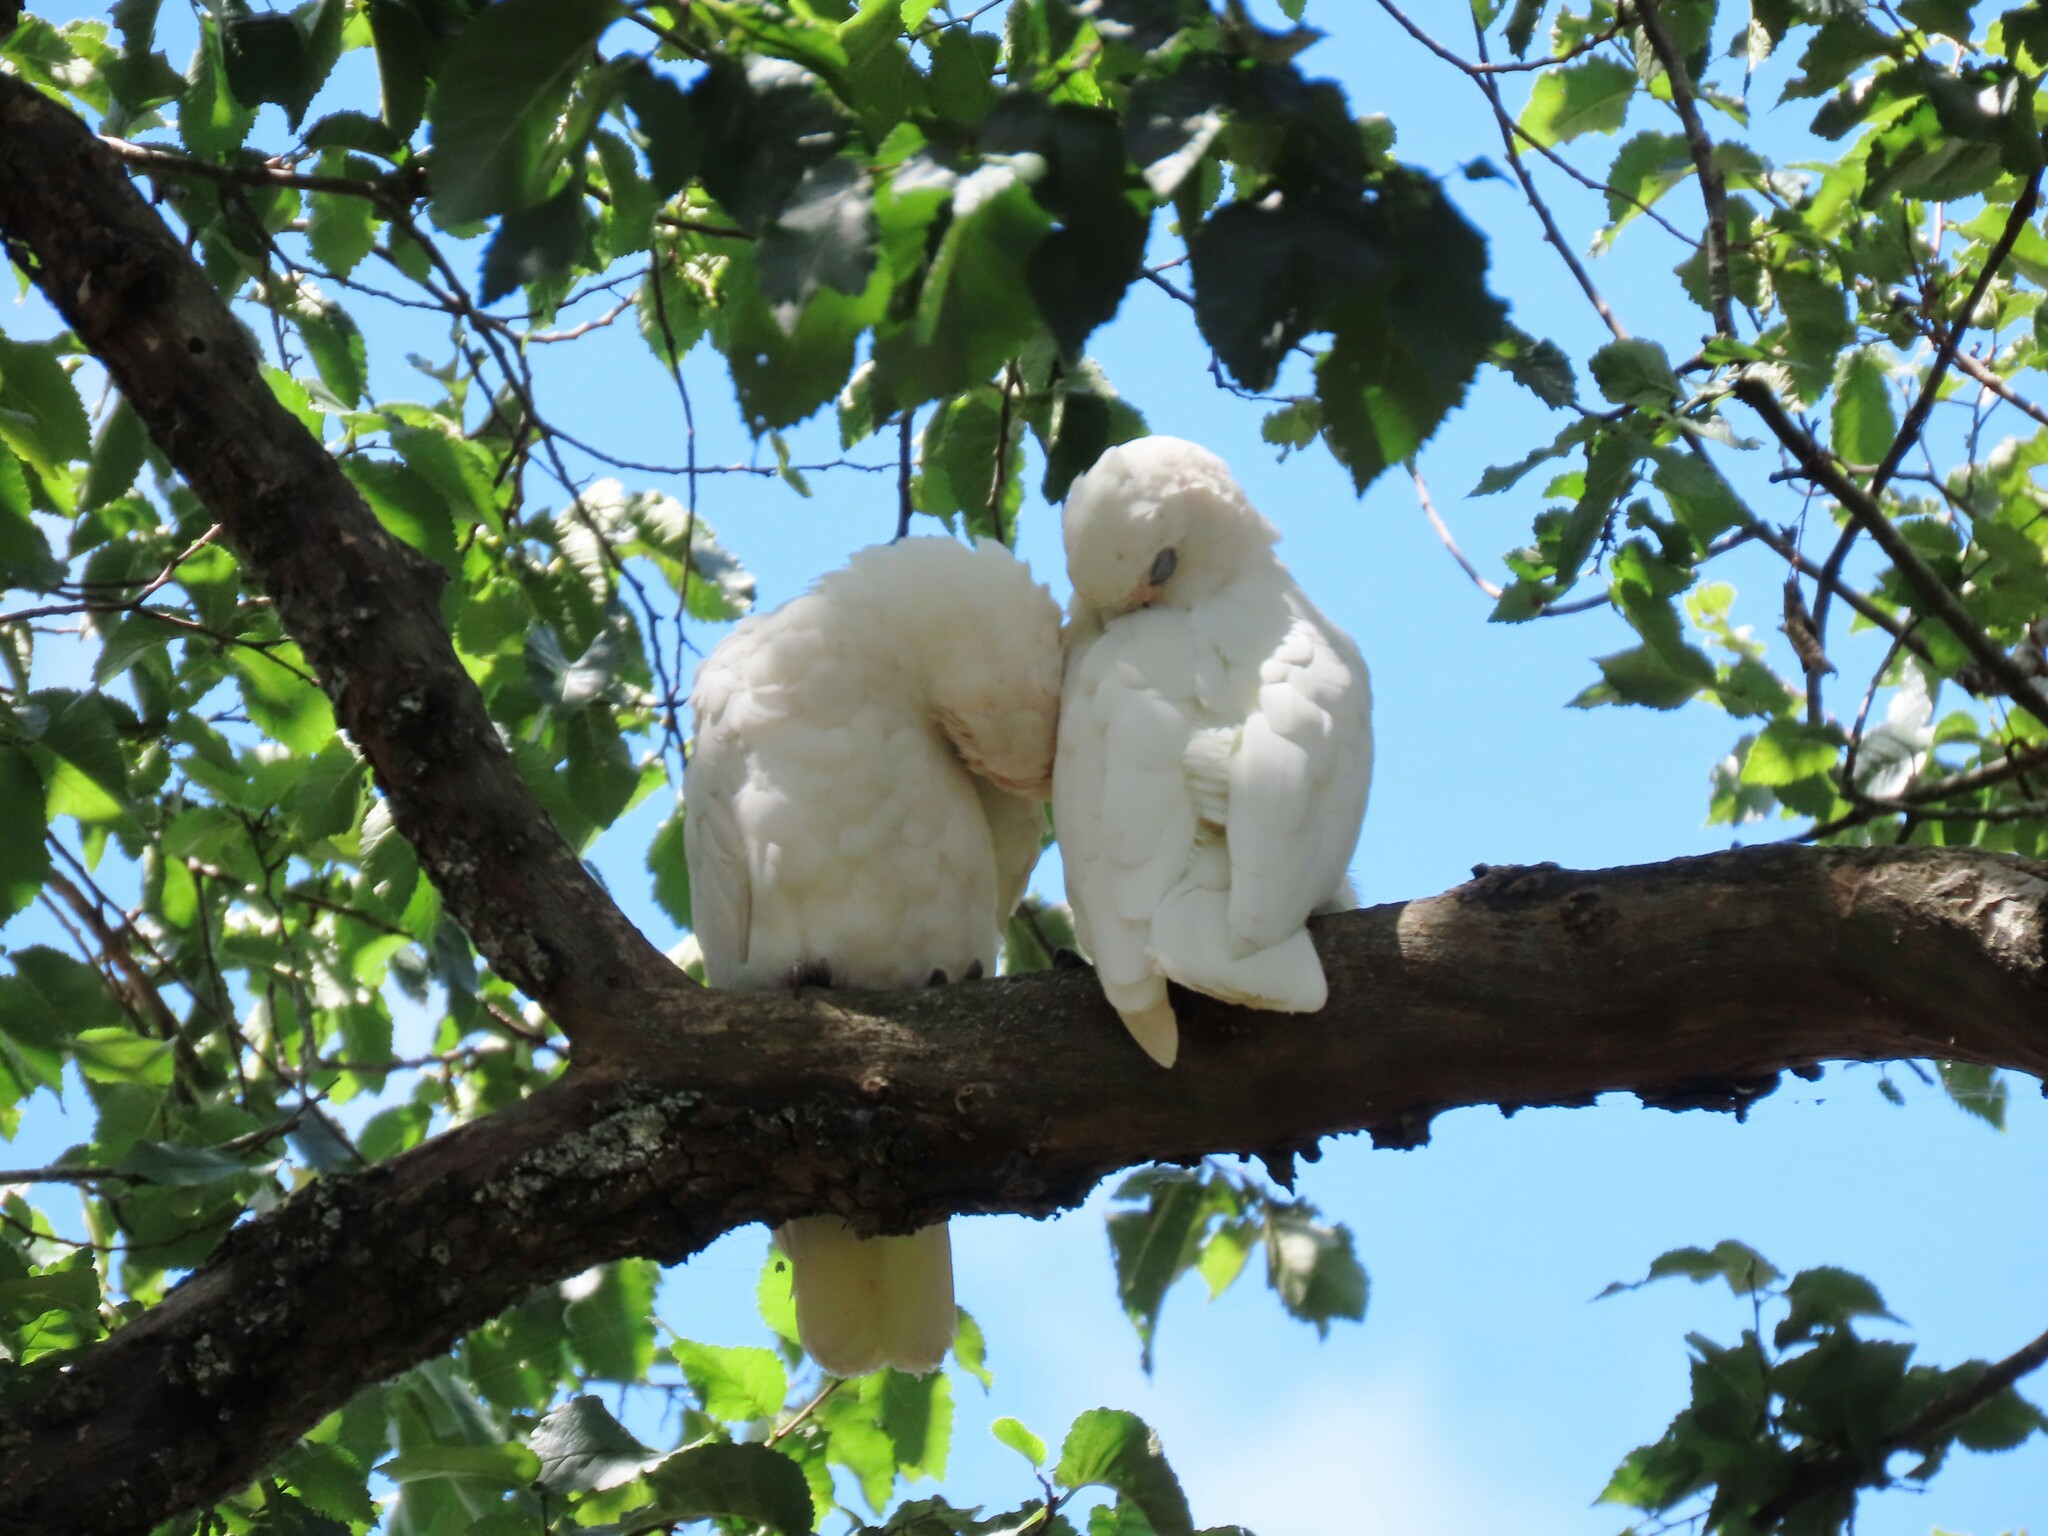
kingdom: Animalia
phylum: Chordata
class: Aves
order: Psittaciformes
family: Psittacidae
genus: Cacatua
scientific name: Cacatua sanguinea
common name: Little corella
